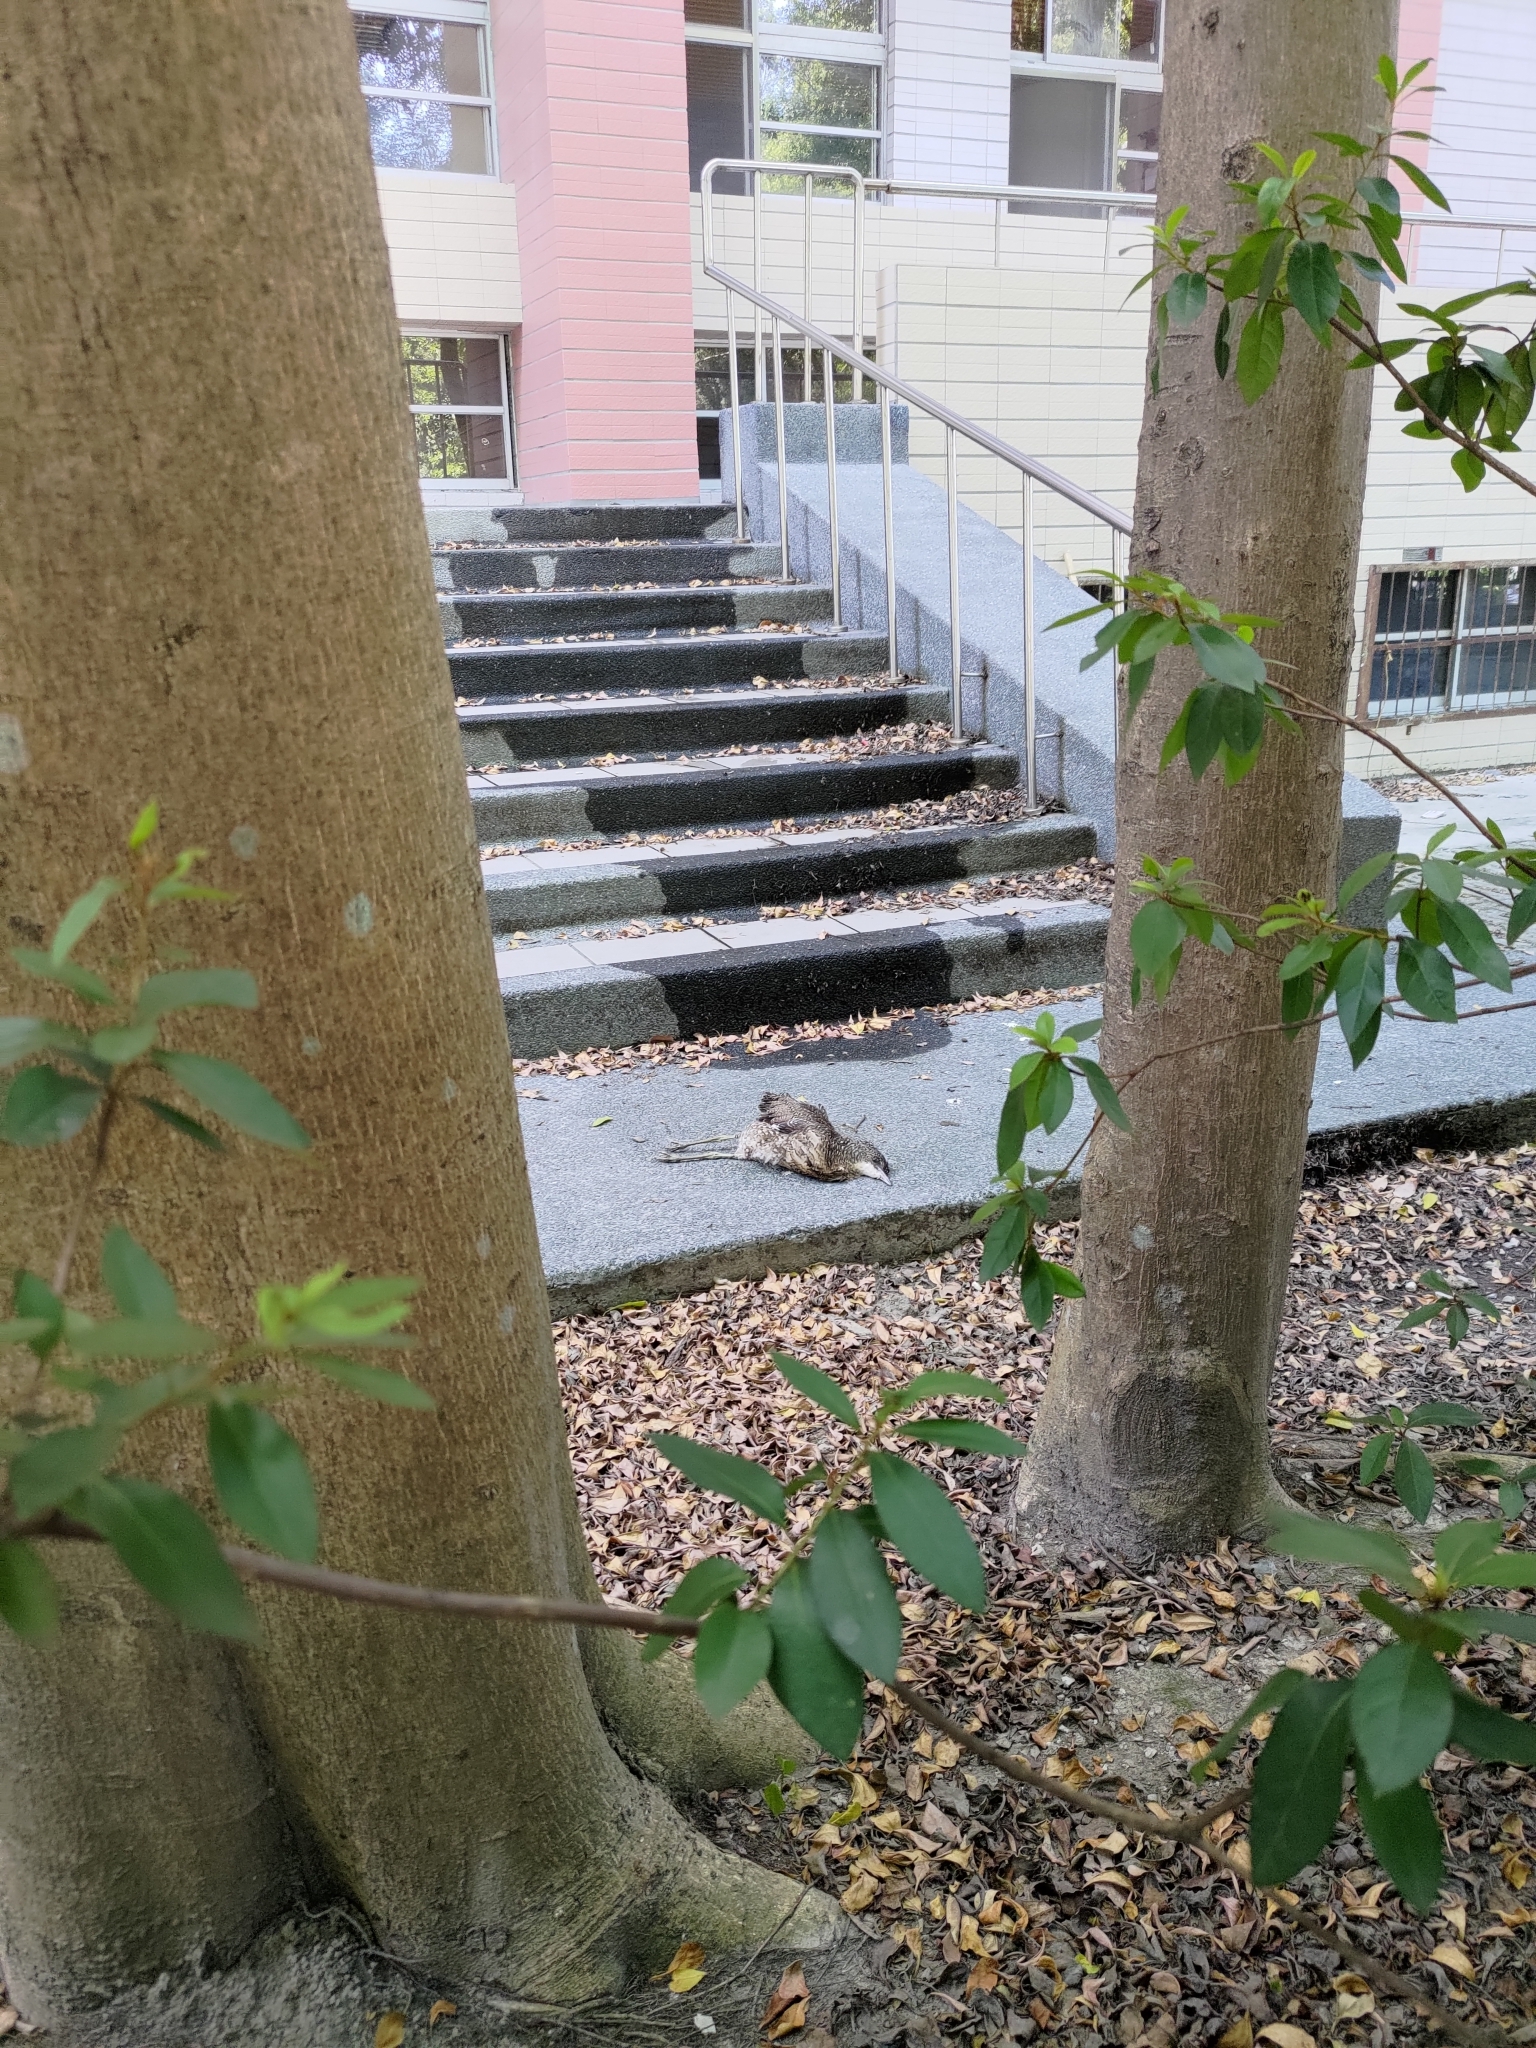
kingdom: Animalia
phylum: Chordata
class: Aves
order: Pelecaniformes
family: Ardeidae
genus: Gorsachius
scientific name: Gorsachius melanolophus
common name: Malayan night heron
